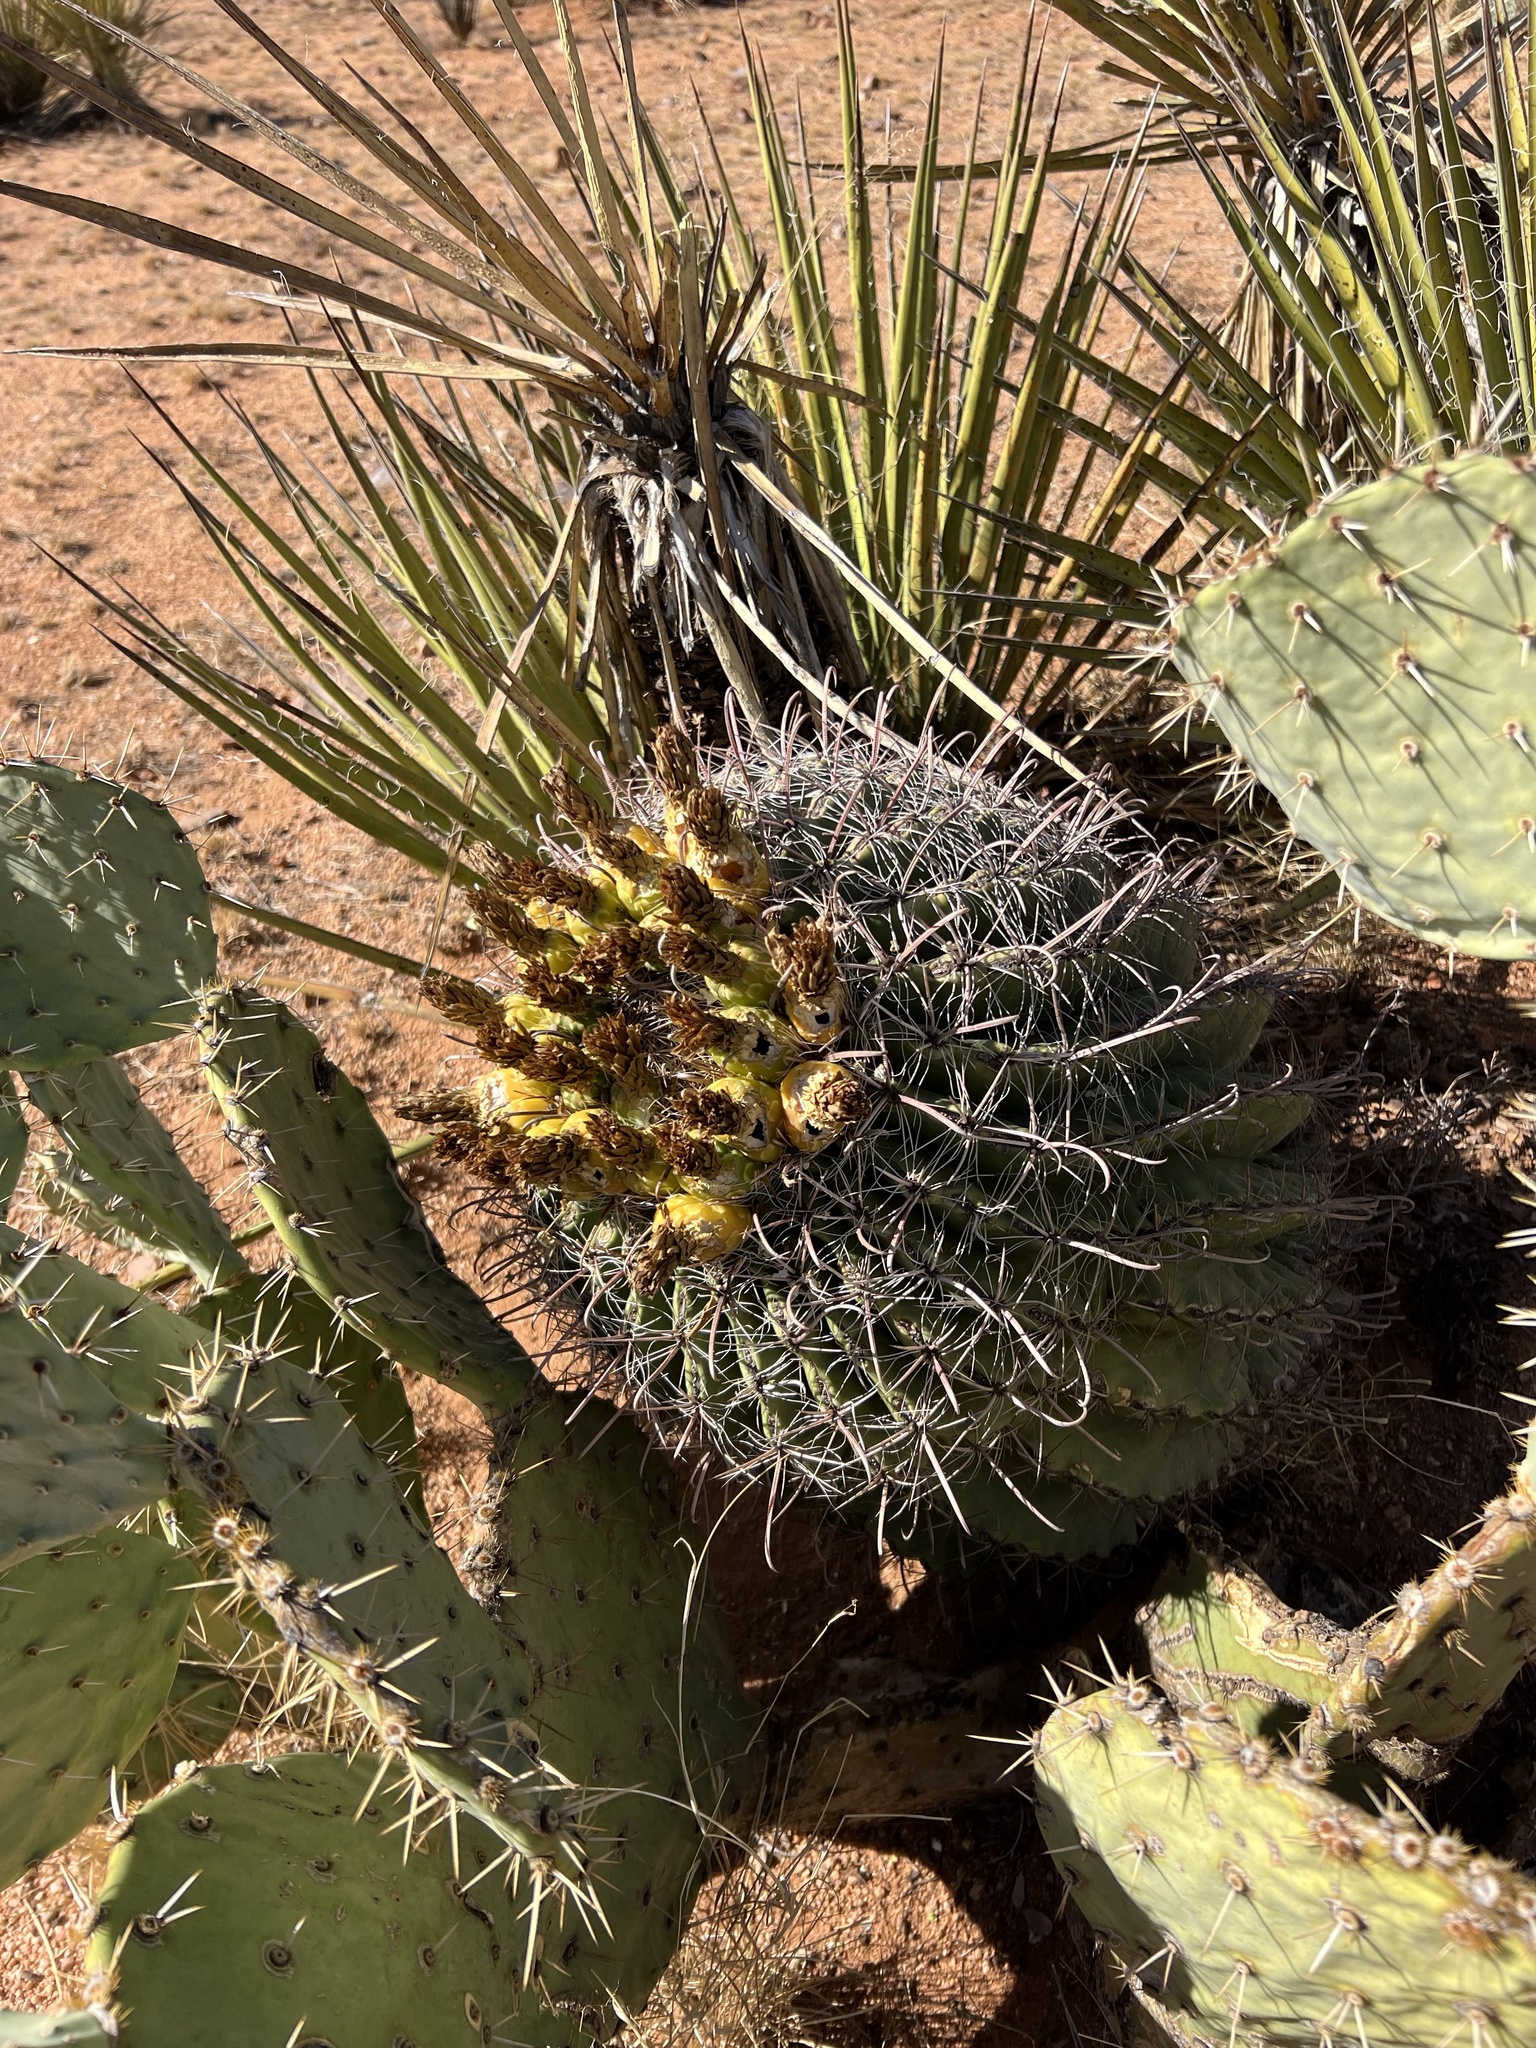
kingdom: Plantae
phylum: Tracheophyta
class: Magnoliopsida
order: Caryophyllales
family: Cactaceae
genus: Ferocactus
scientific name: Ferocactus wislizeni
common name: Candy barrel cactus
